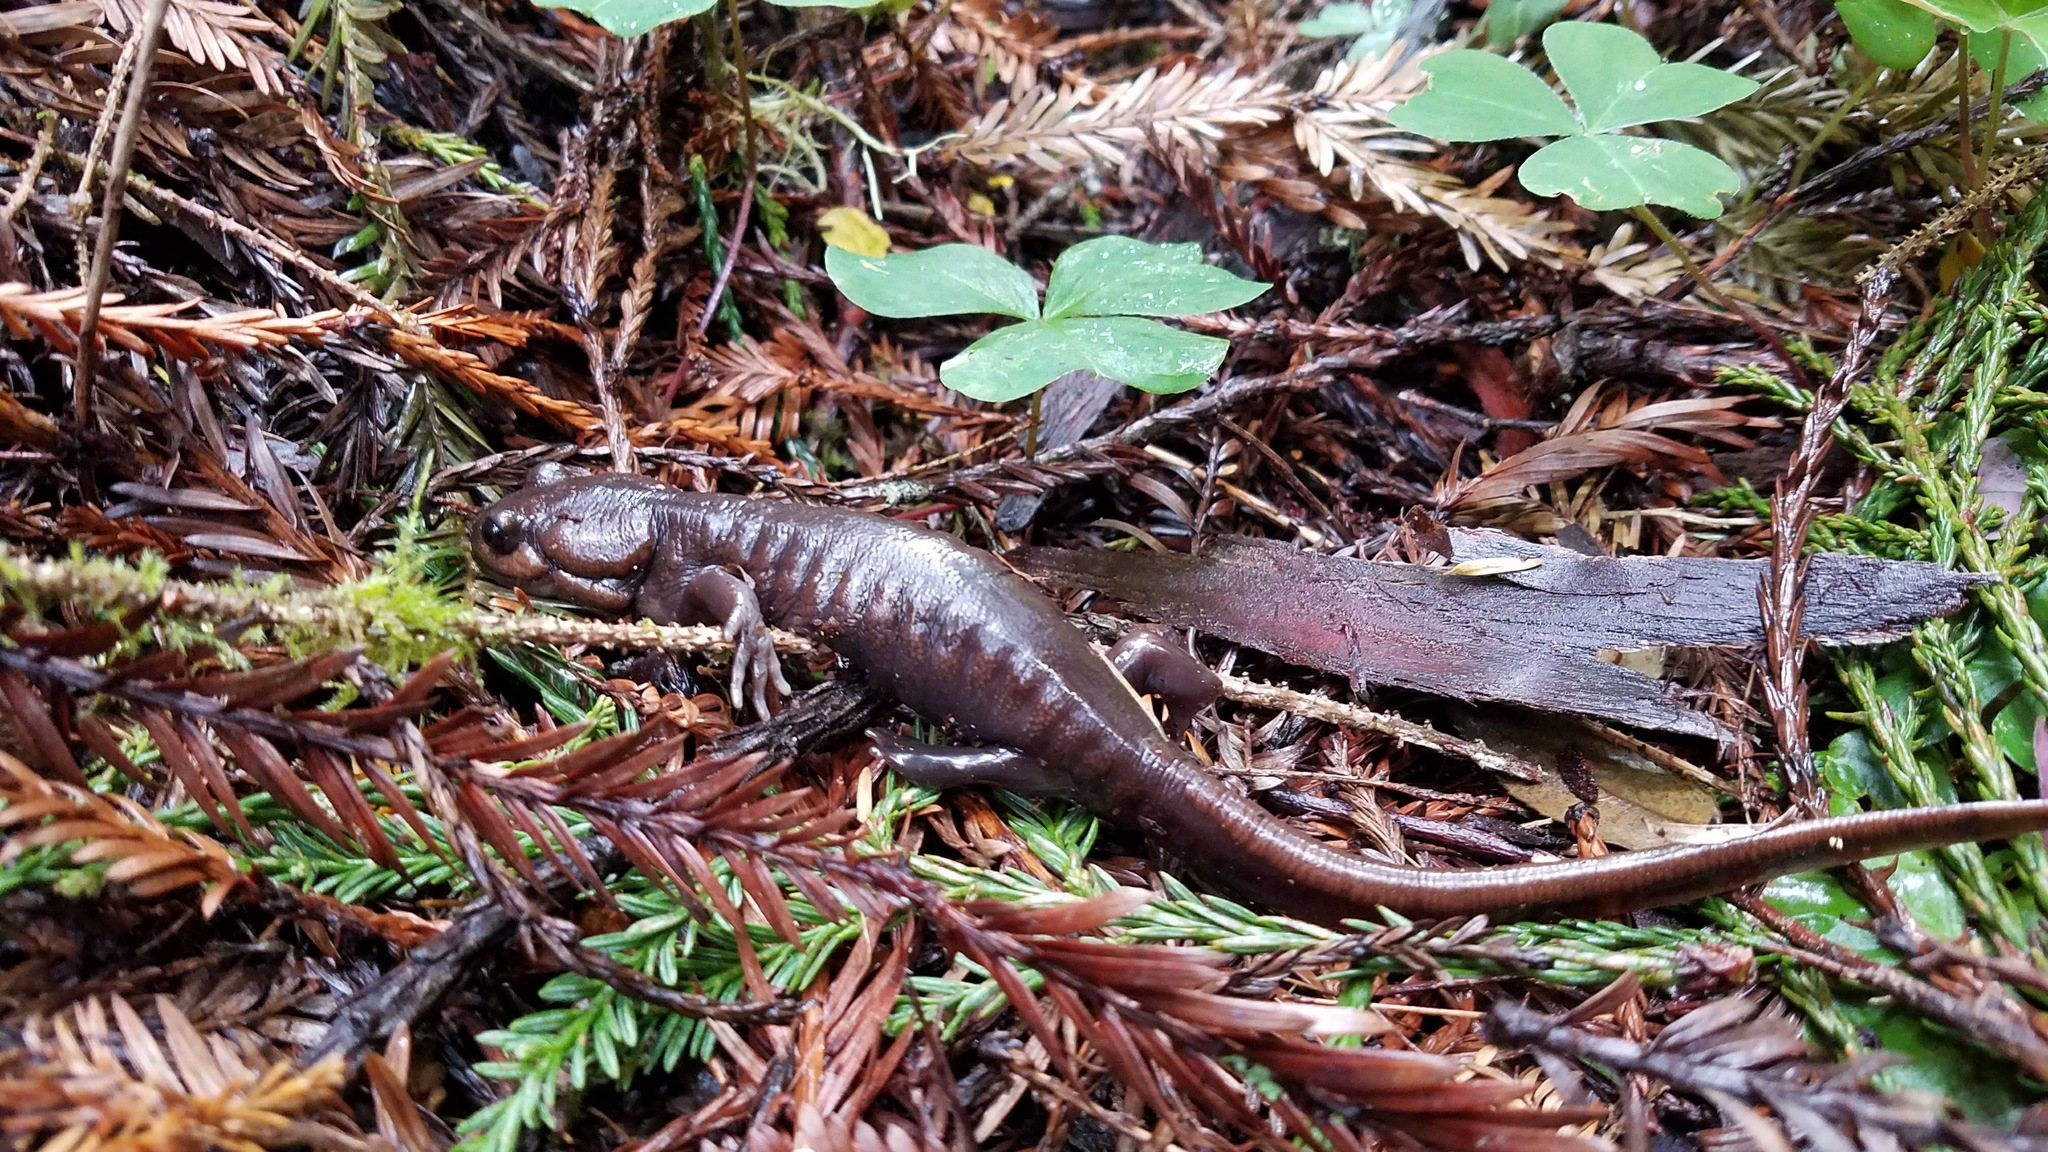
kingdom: Animalia
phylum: Chordata
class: Amphibia
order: Caudata
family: Ambystomatidae
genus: Ambystoma
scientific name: Ambystoma gracile
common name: Northwestern salamander
